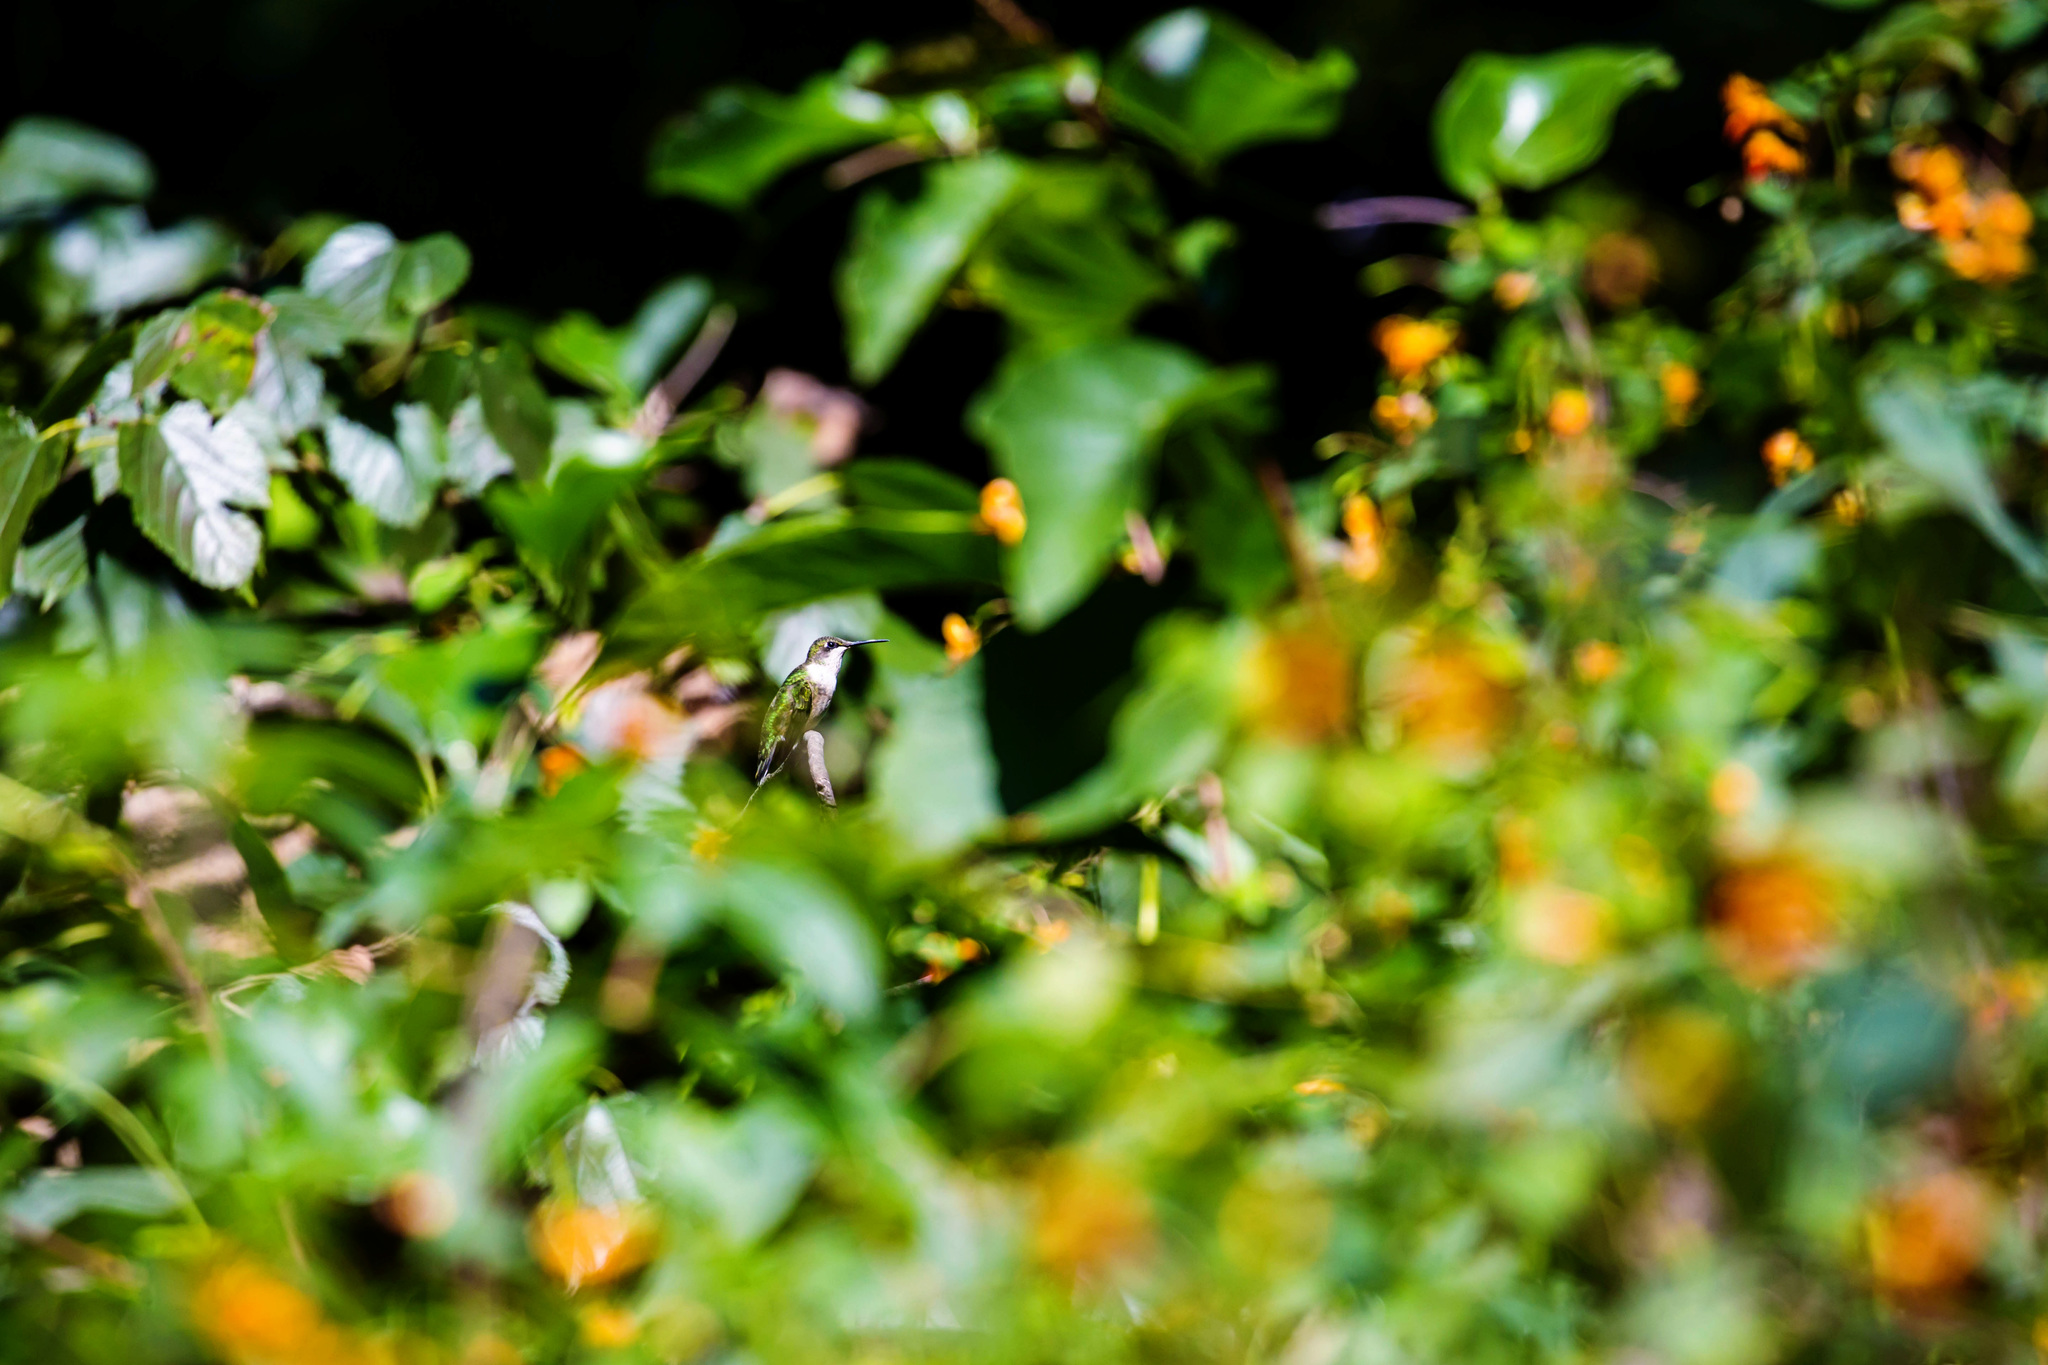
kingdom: Animalia
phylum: Chordata
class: Aves
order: Apodiformes
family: Trochilidae
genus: Archilochus
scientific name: Archilochus colubris
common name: Ruby-throated hummingbird
